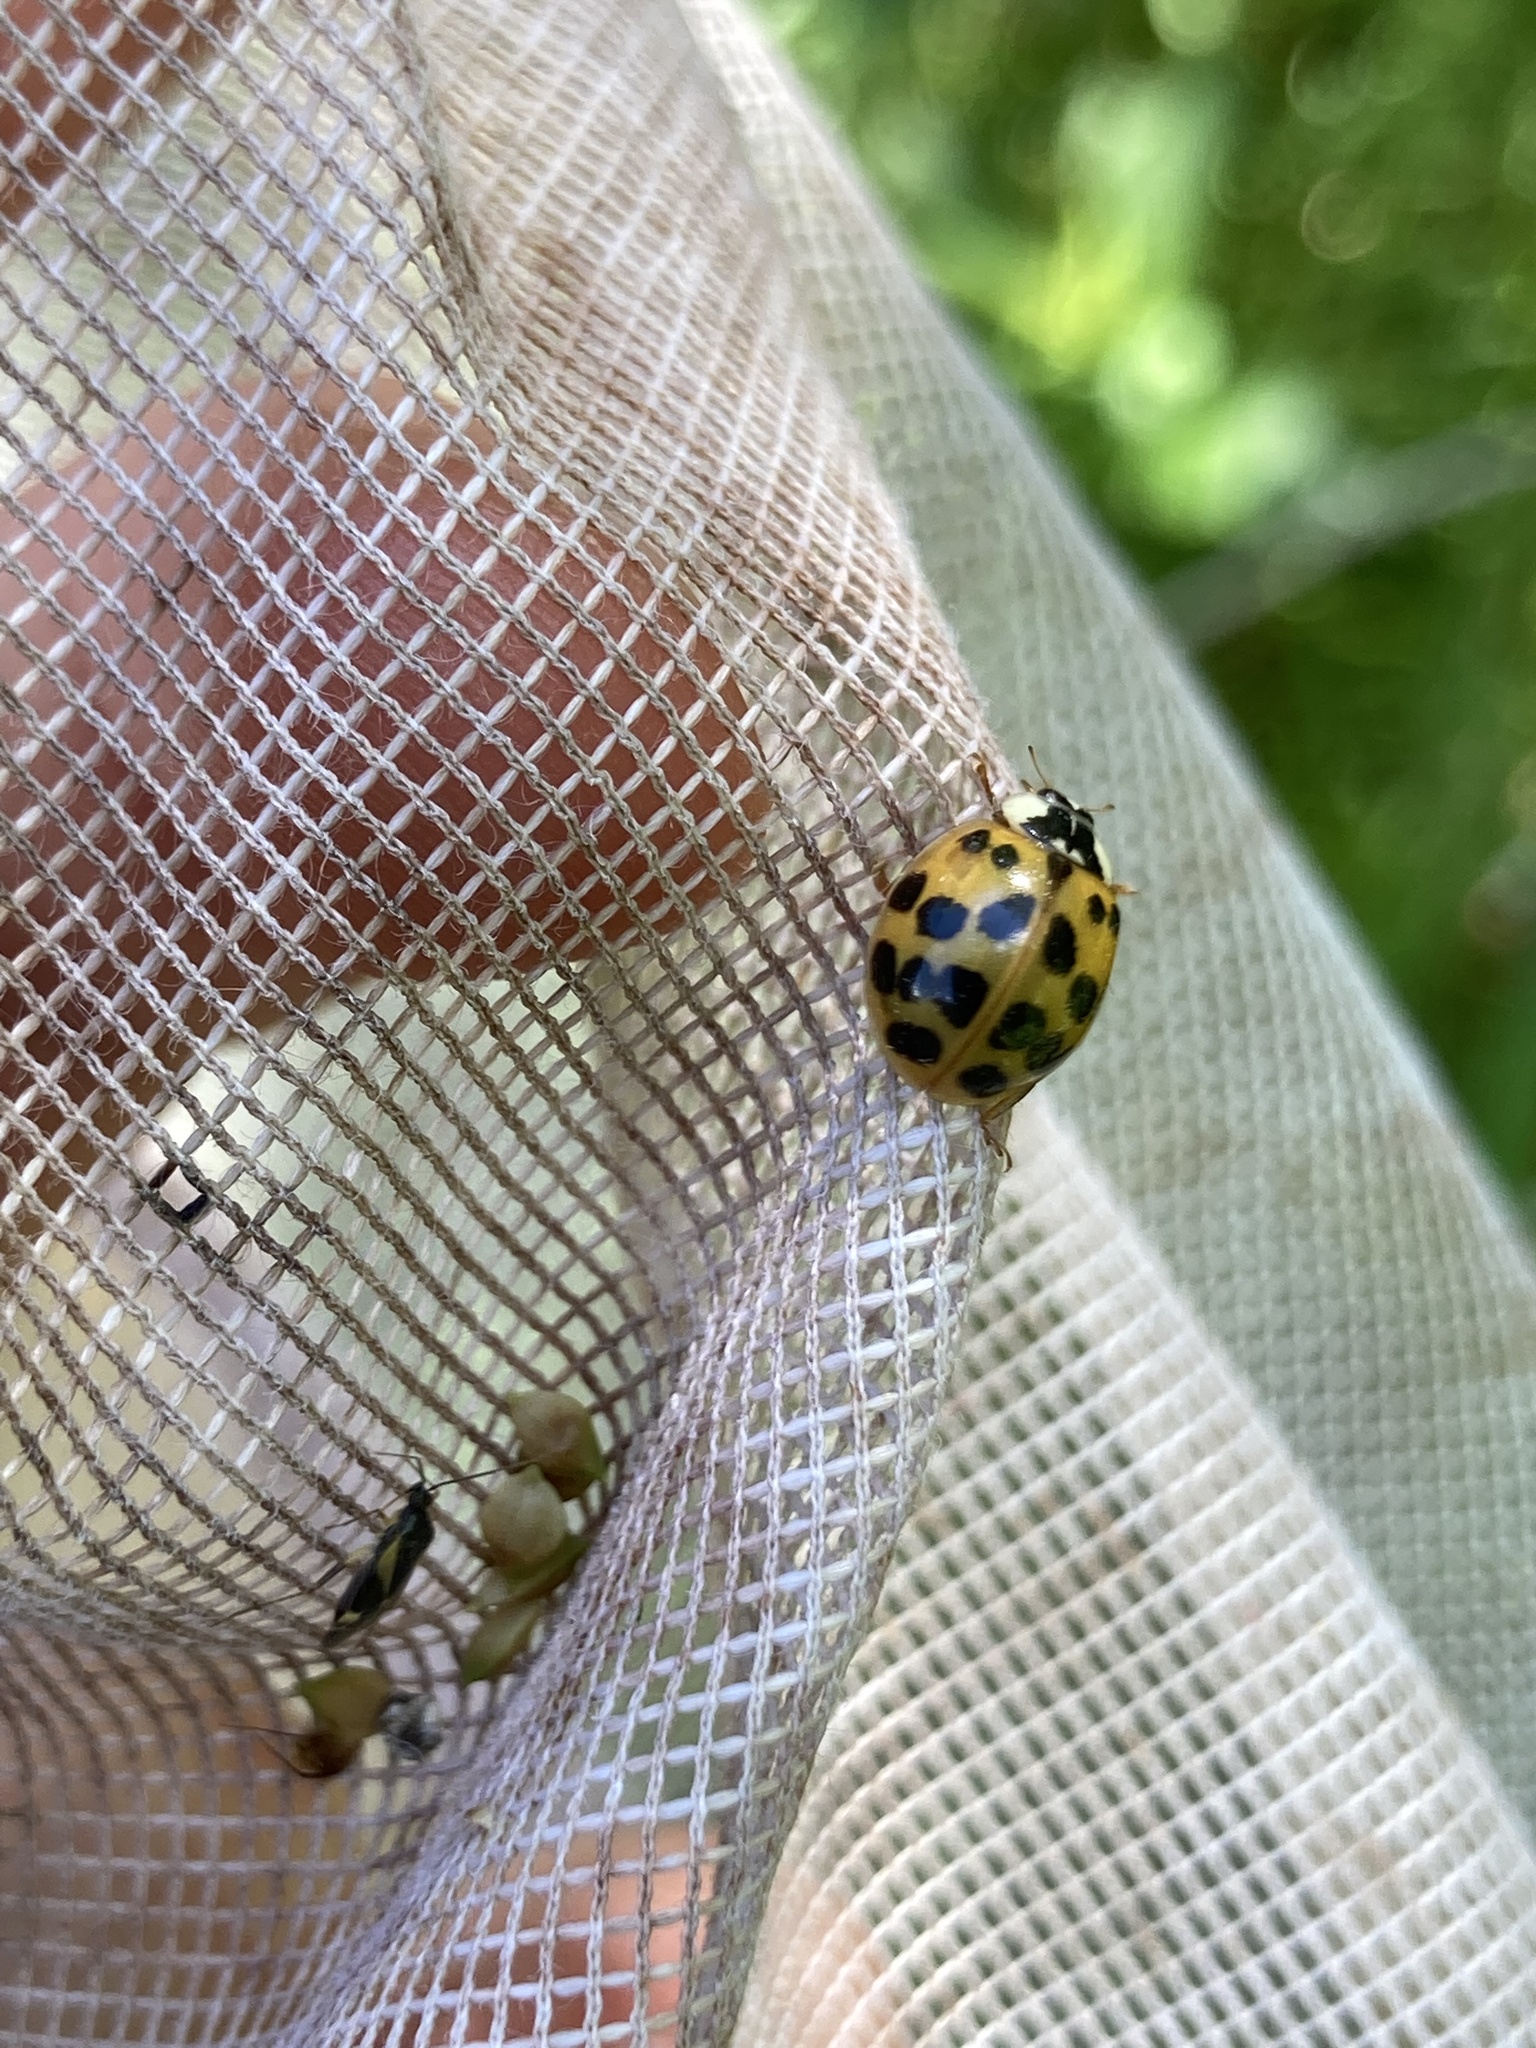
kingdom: Animalia
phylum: Arthropoda
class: Insecta
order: Coleoptera
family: Coccinellidae
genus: Harmonia
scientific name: Harmonia axyridis
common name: Harlequin ladybird
